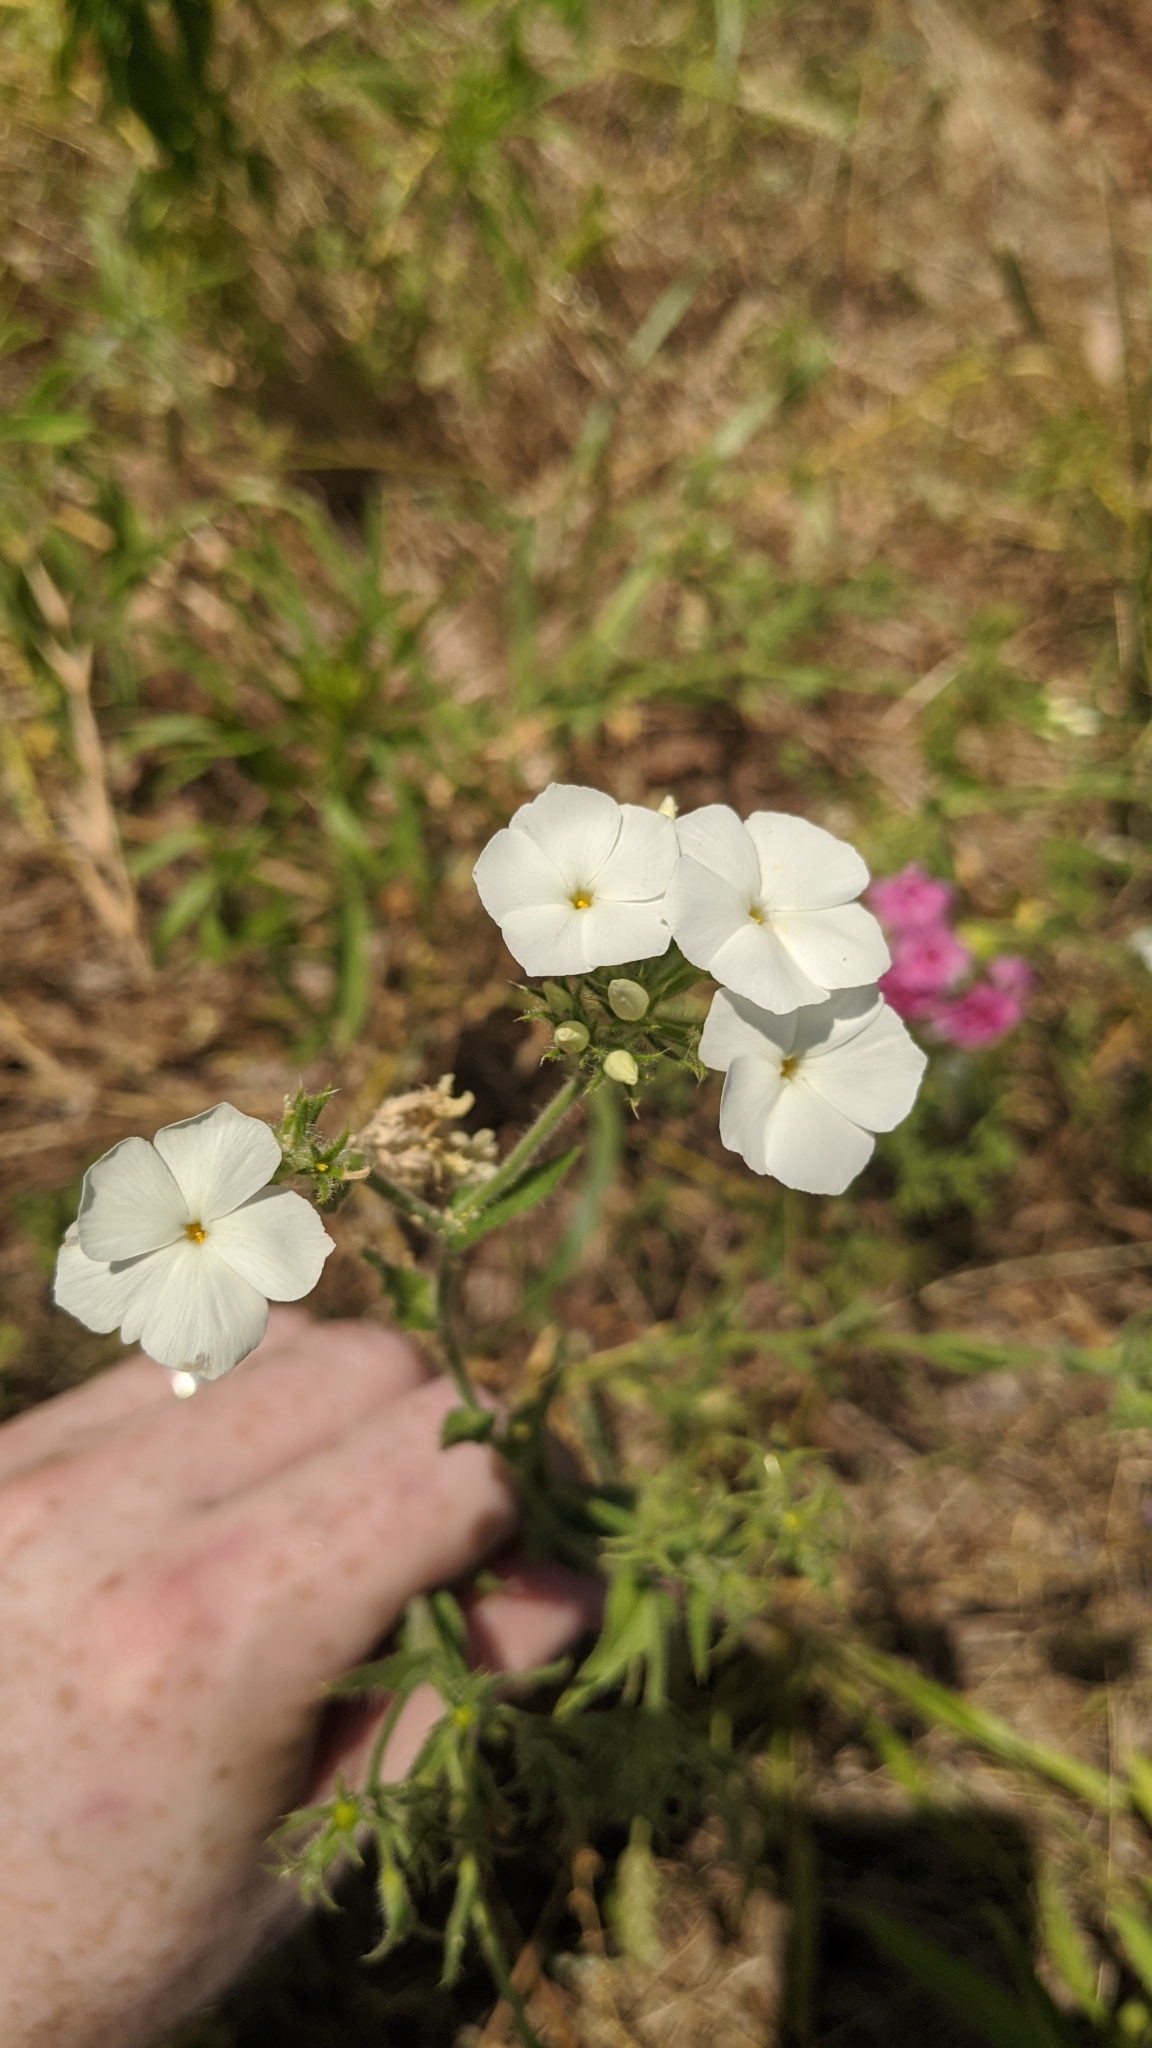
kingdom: Plantae
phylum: Tracheophyta
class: Magnoliopsida
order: Ericales
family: Polemoniaceae
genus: Phlox
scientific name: Phlox drummondii
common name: Drummond's phlox
